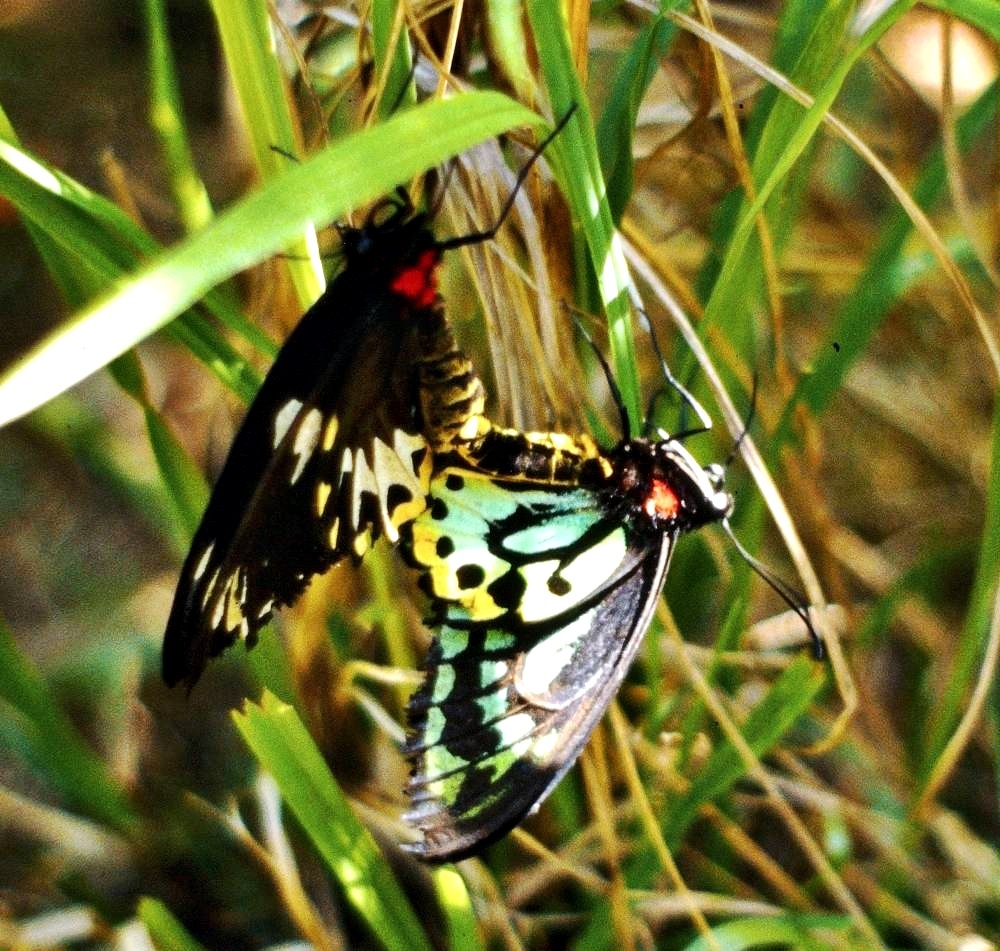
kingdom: Animalia
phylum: Arthropoda
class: Insecta
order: Lepidoptera
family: Papilionidae
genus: Ornithoptera
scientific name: Ornithoptera richmondia
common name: Richmond birdwing
